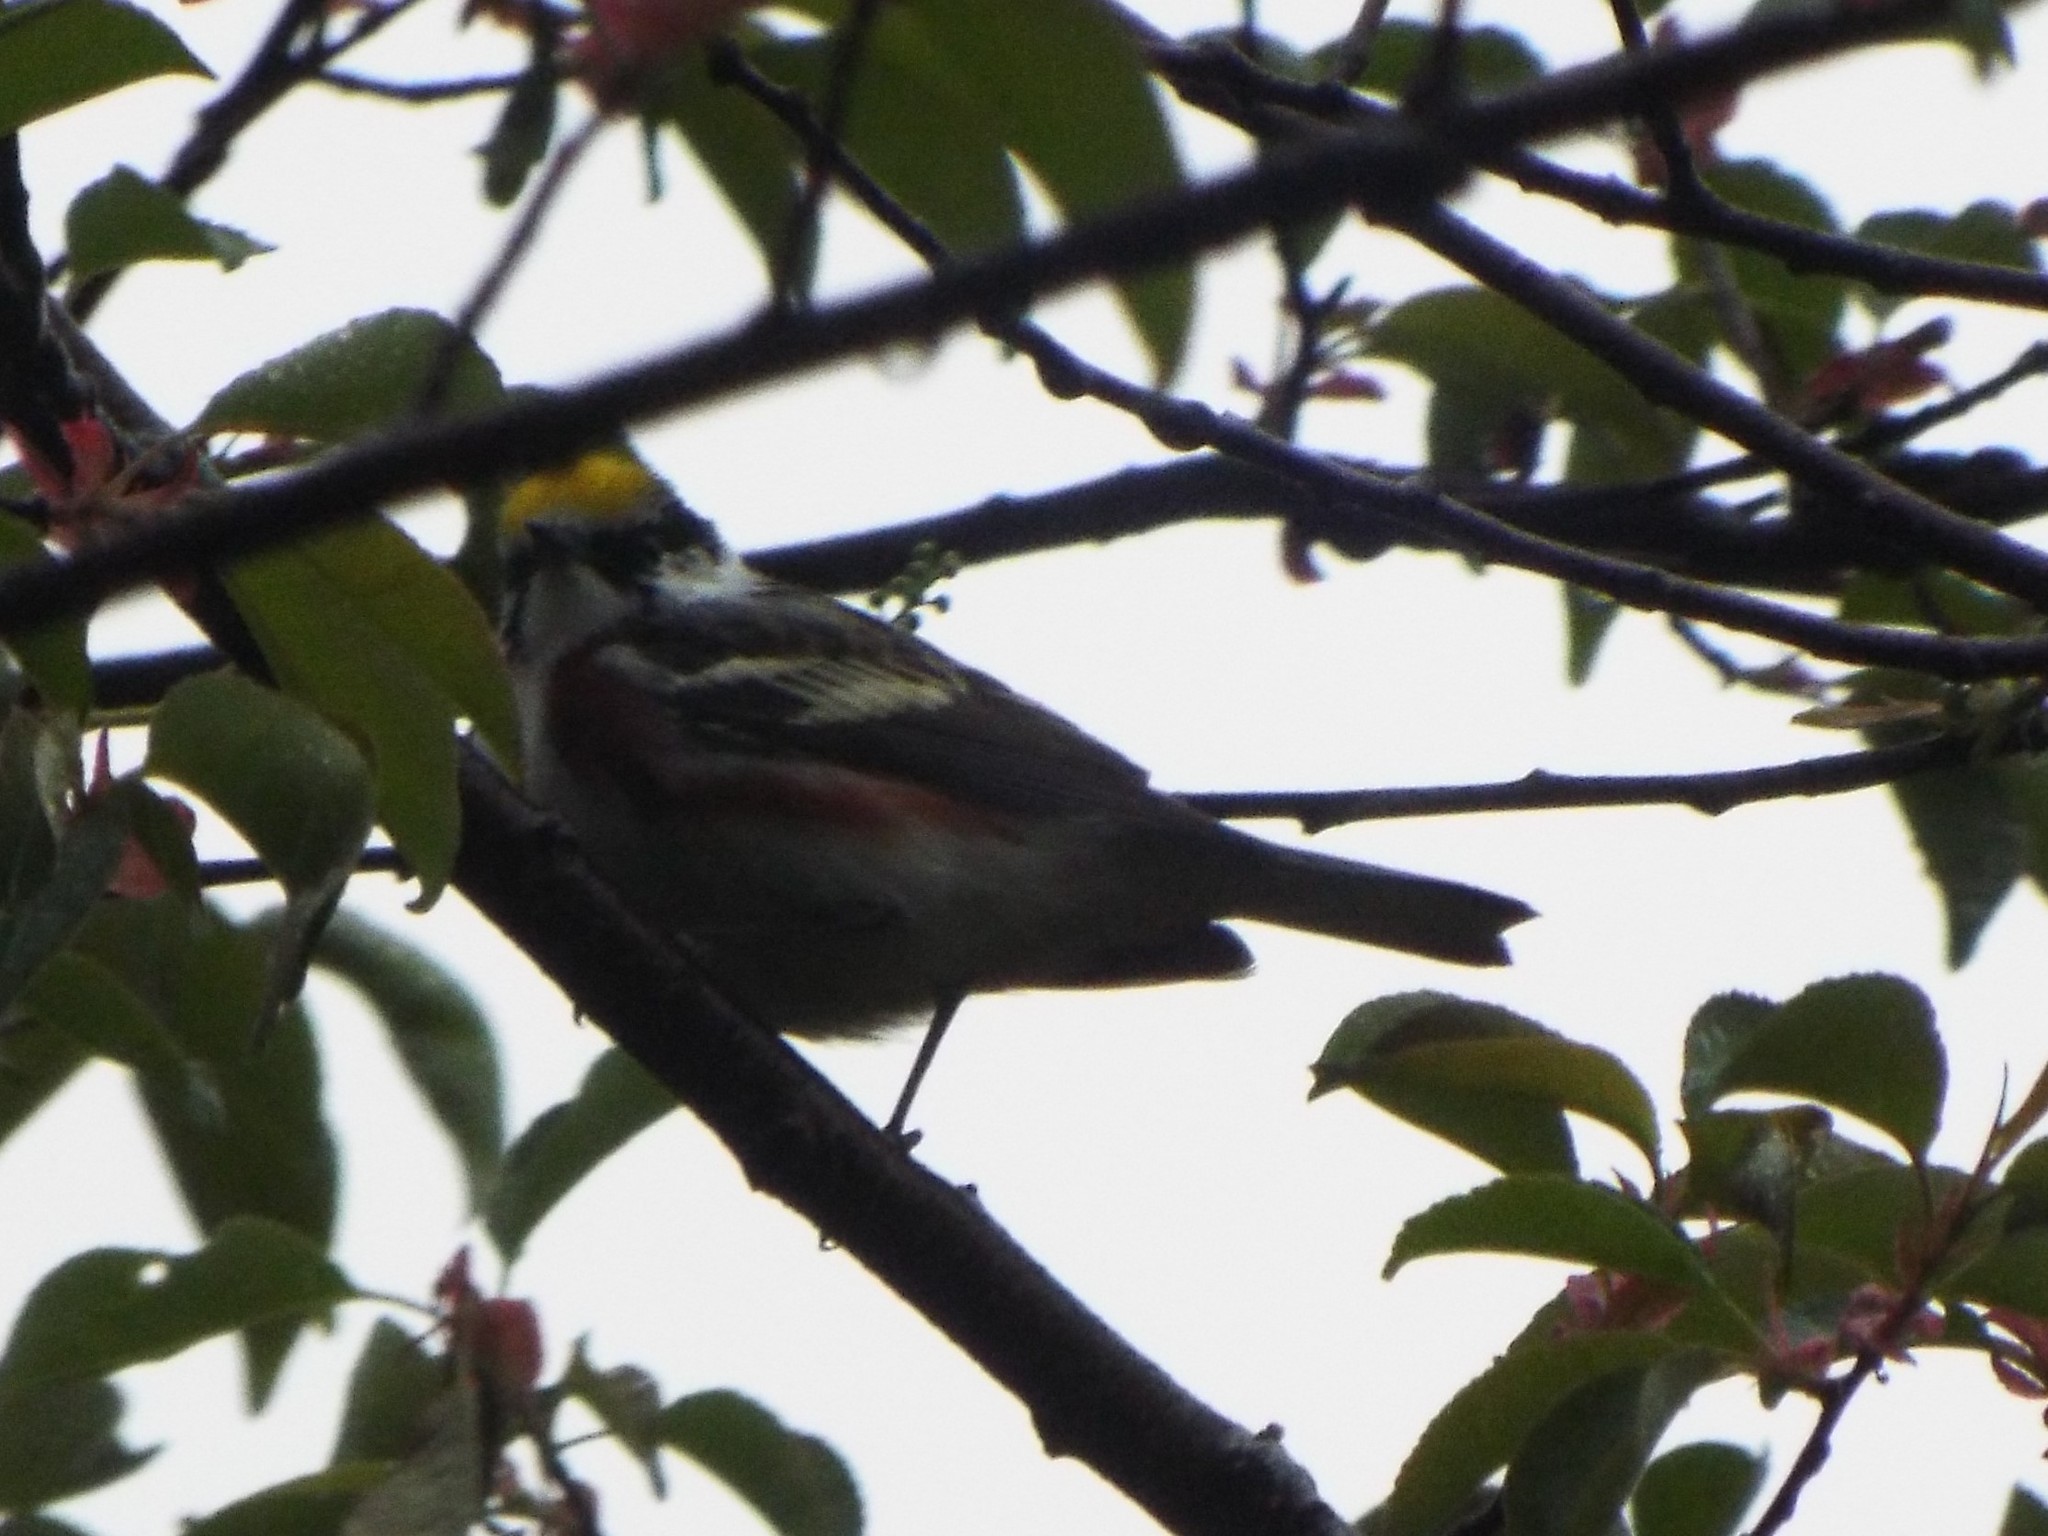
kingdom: Animalia
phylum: Chordata
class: Aves
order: Passeriformes
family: Parulidae
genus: Setophaga
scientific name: Setophaga pensylvanica
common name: Chestnut-sided warbler
